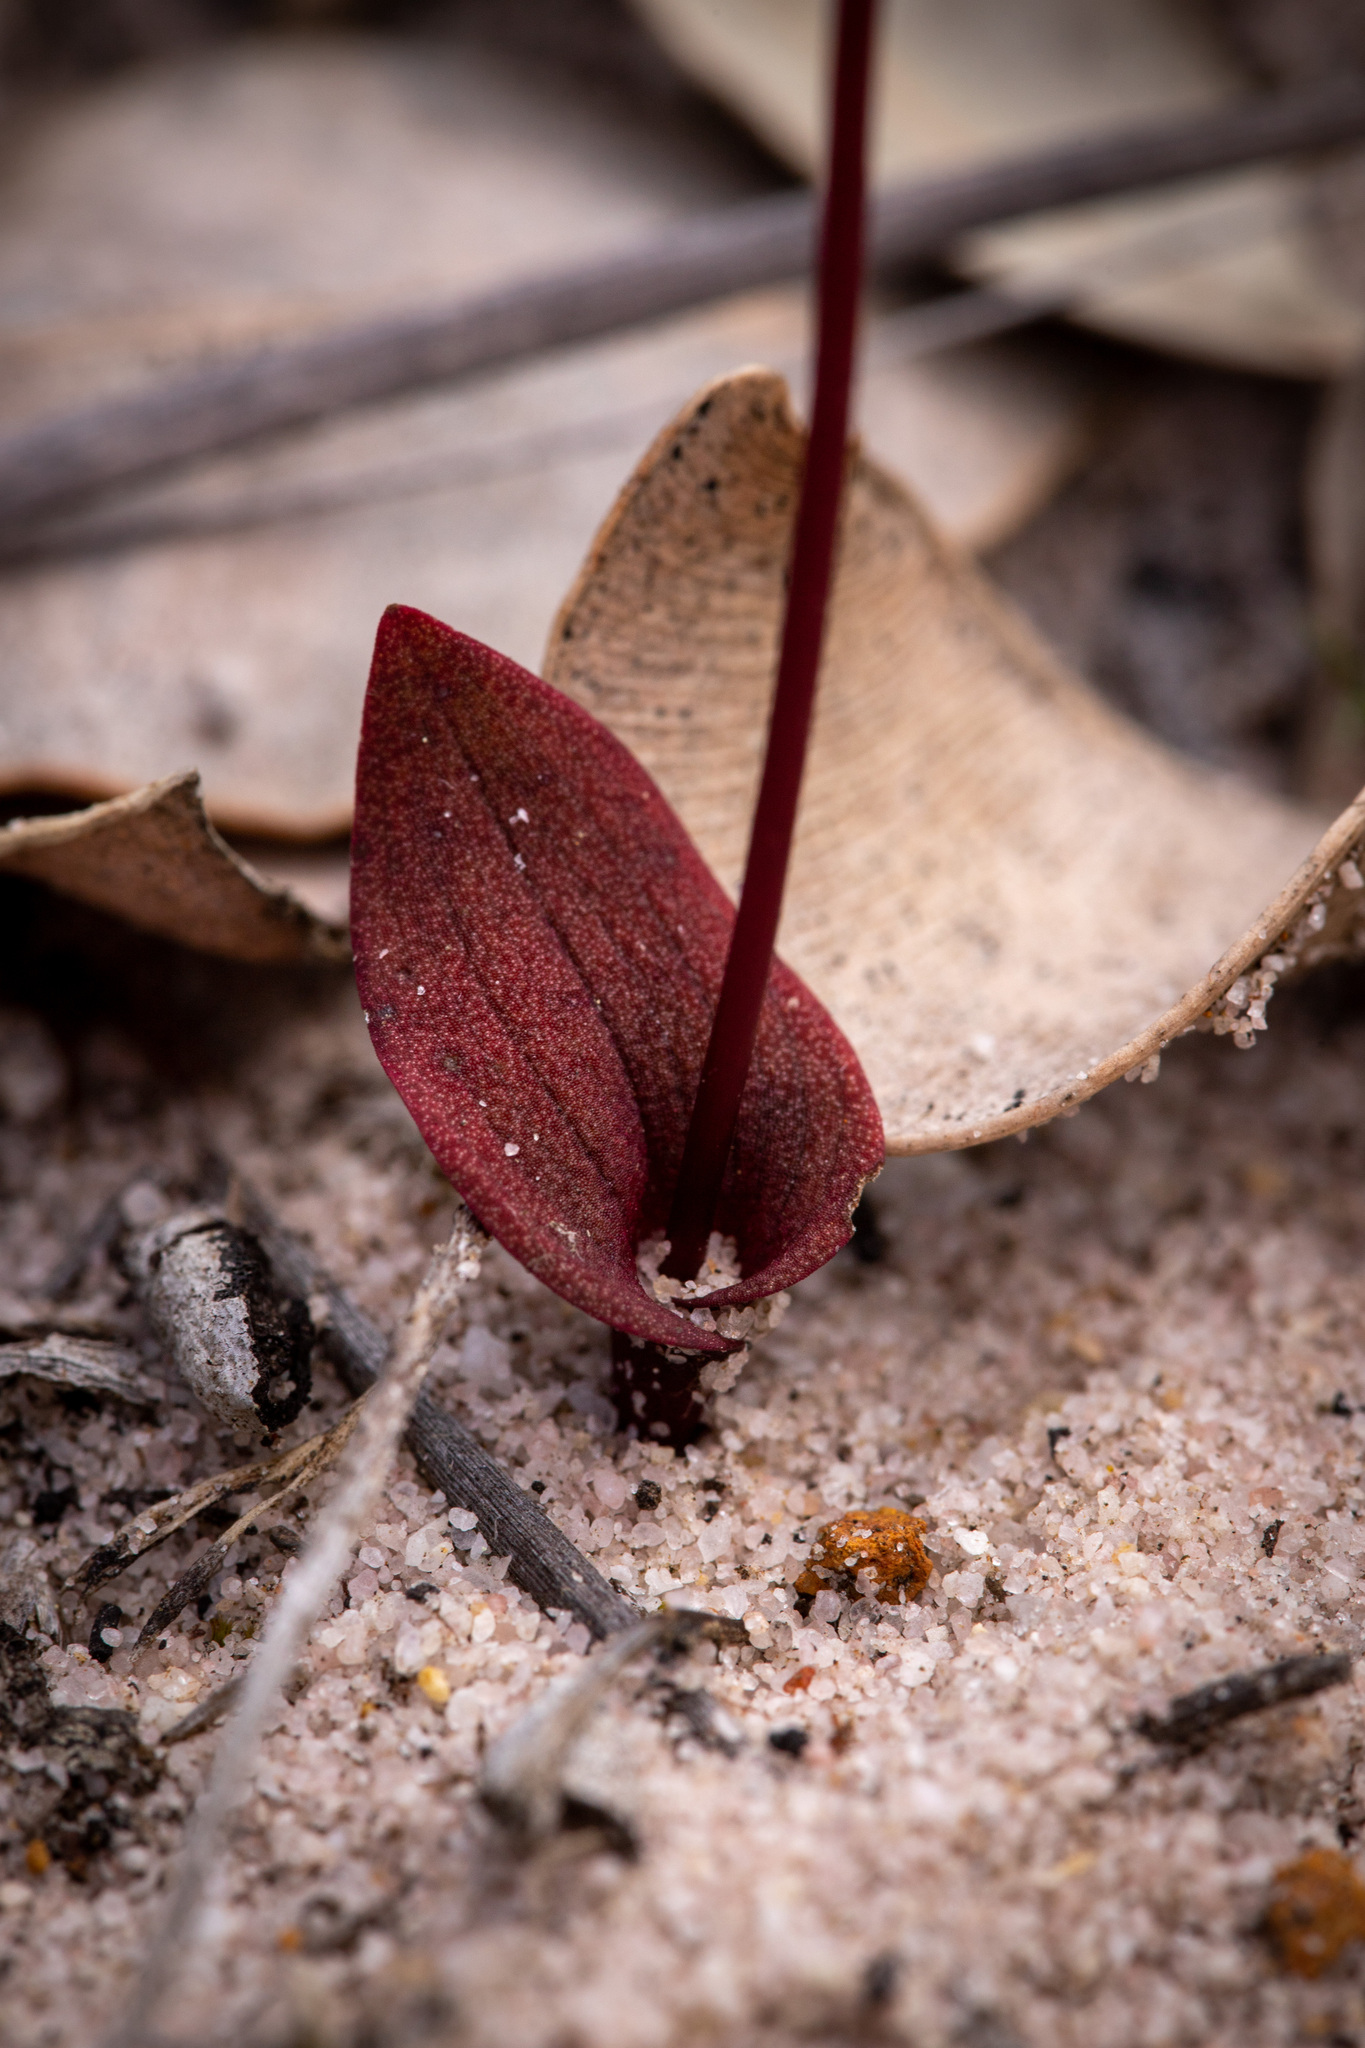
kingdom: Plantae
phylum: Tracheophyta
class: Liliopsida
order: Asparagales
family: Orchidaceae
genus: Caleana
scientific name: Caleana nigrita
